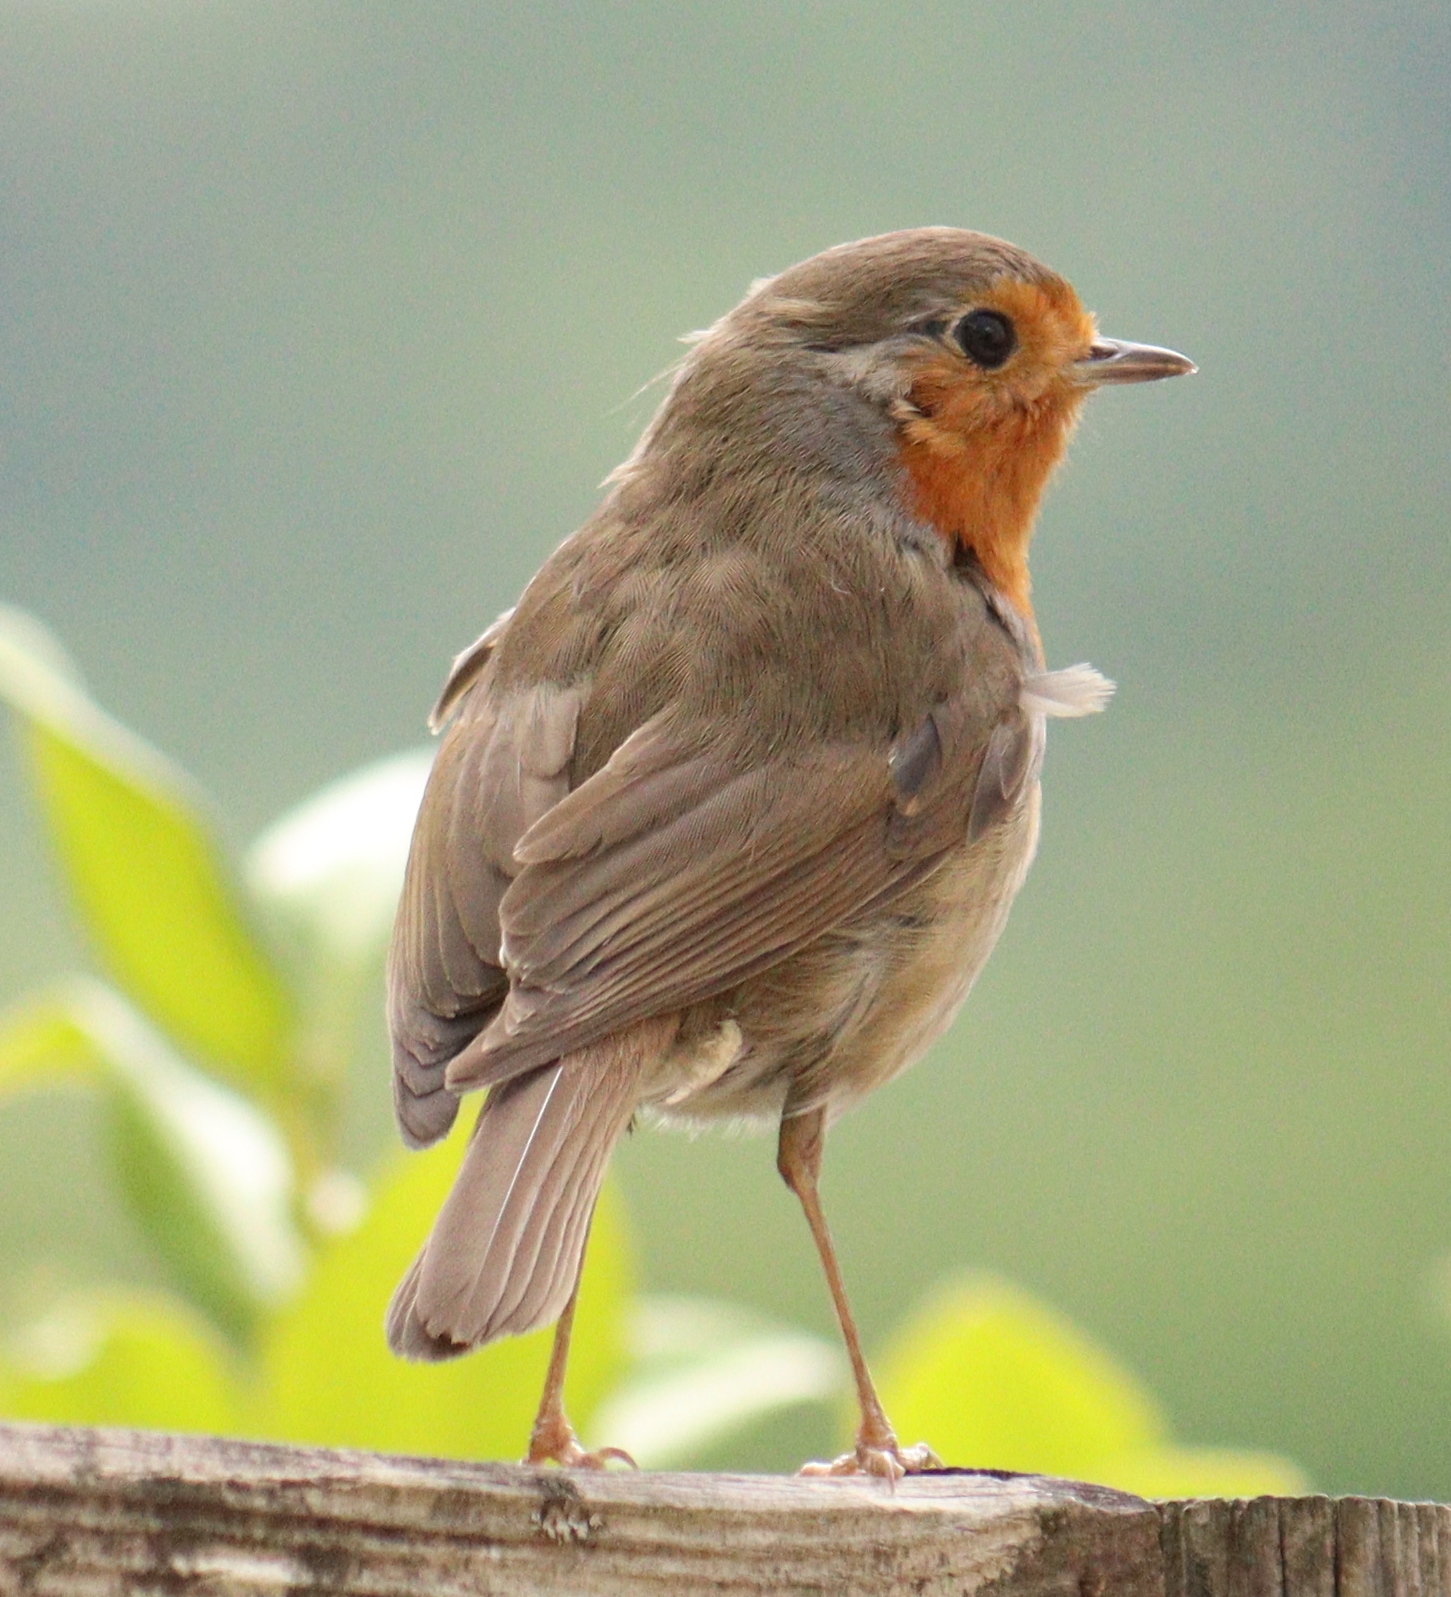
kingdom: Animalia
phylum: Chordata
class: Aves
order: Passeriformes
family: Muscicapidae
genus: Erithacus
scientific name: Erithacus rubecula
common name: European robin
